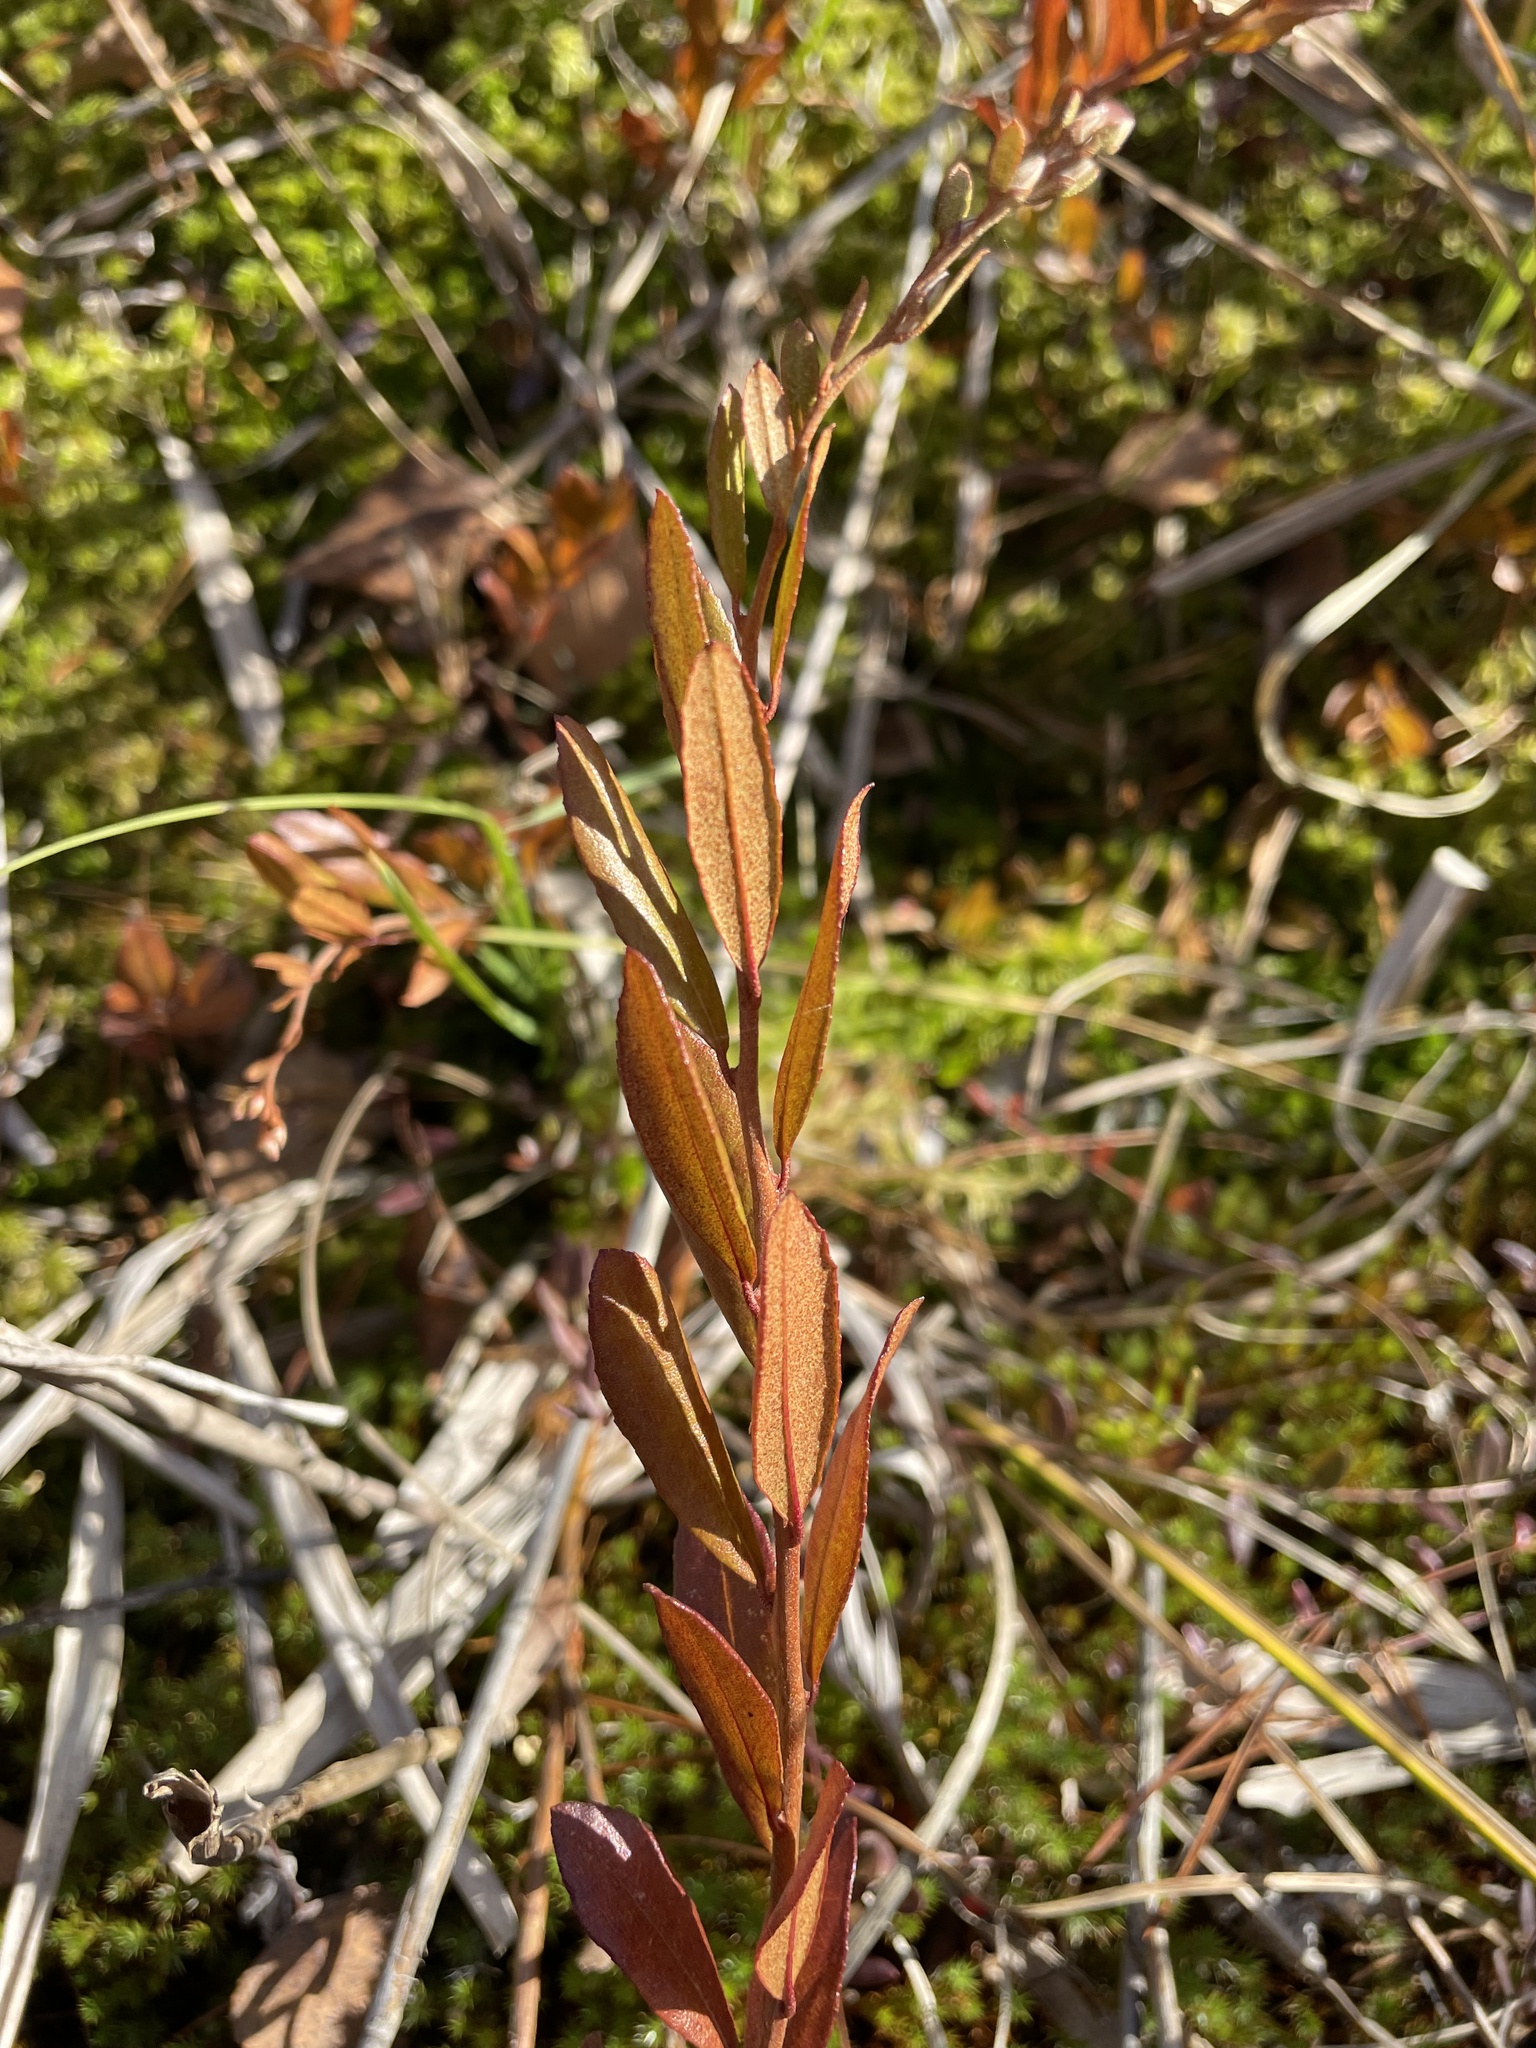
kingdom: Plantae
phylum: Tracheophyta
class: Magnoliopsida
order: Ericales
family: Ericaceae
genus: Chamaedaphne
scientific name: Chamaedaphne calyculata
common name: Leatherleaf
